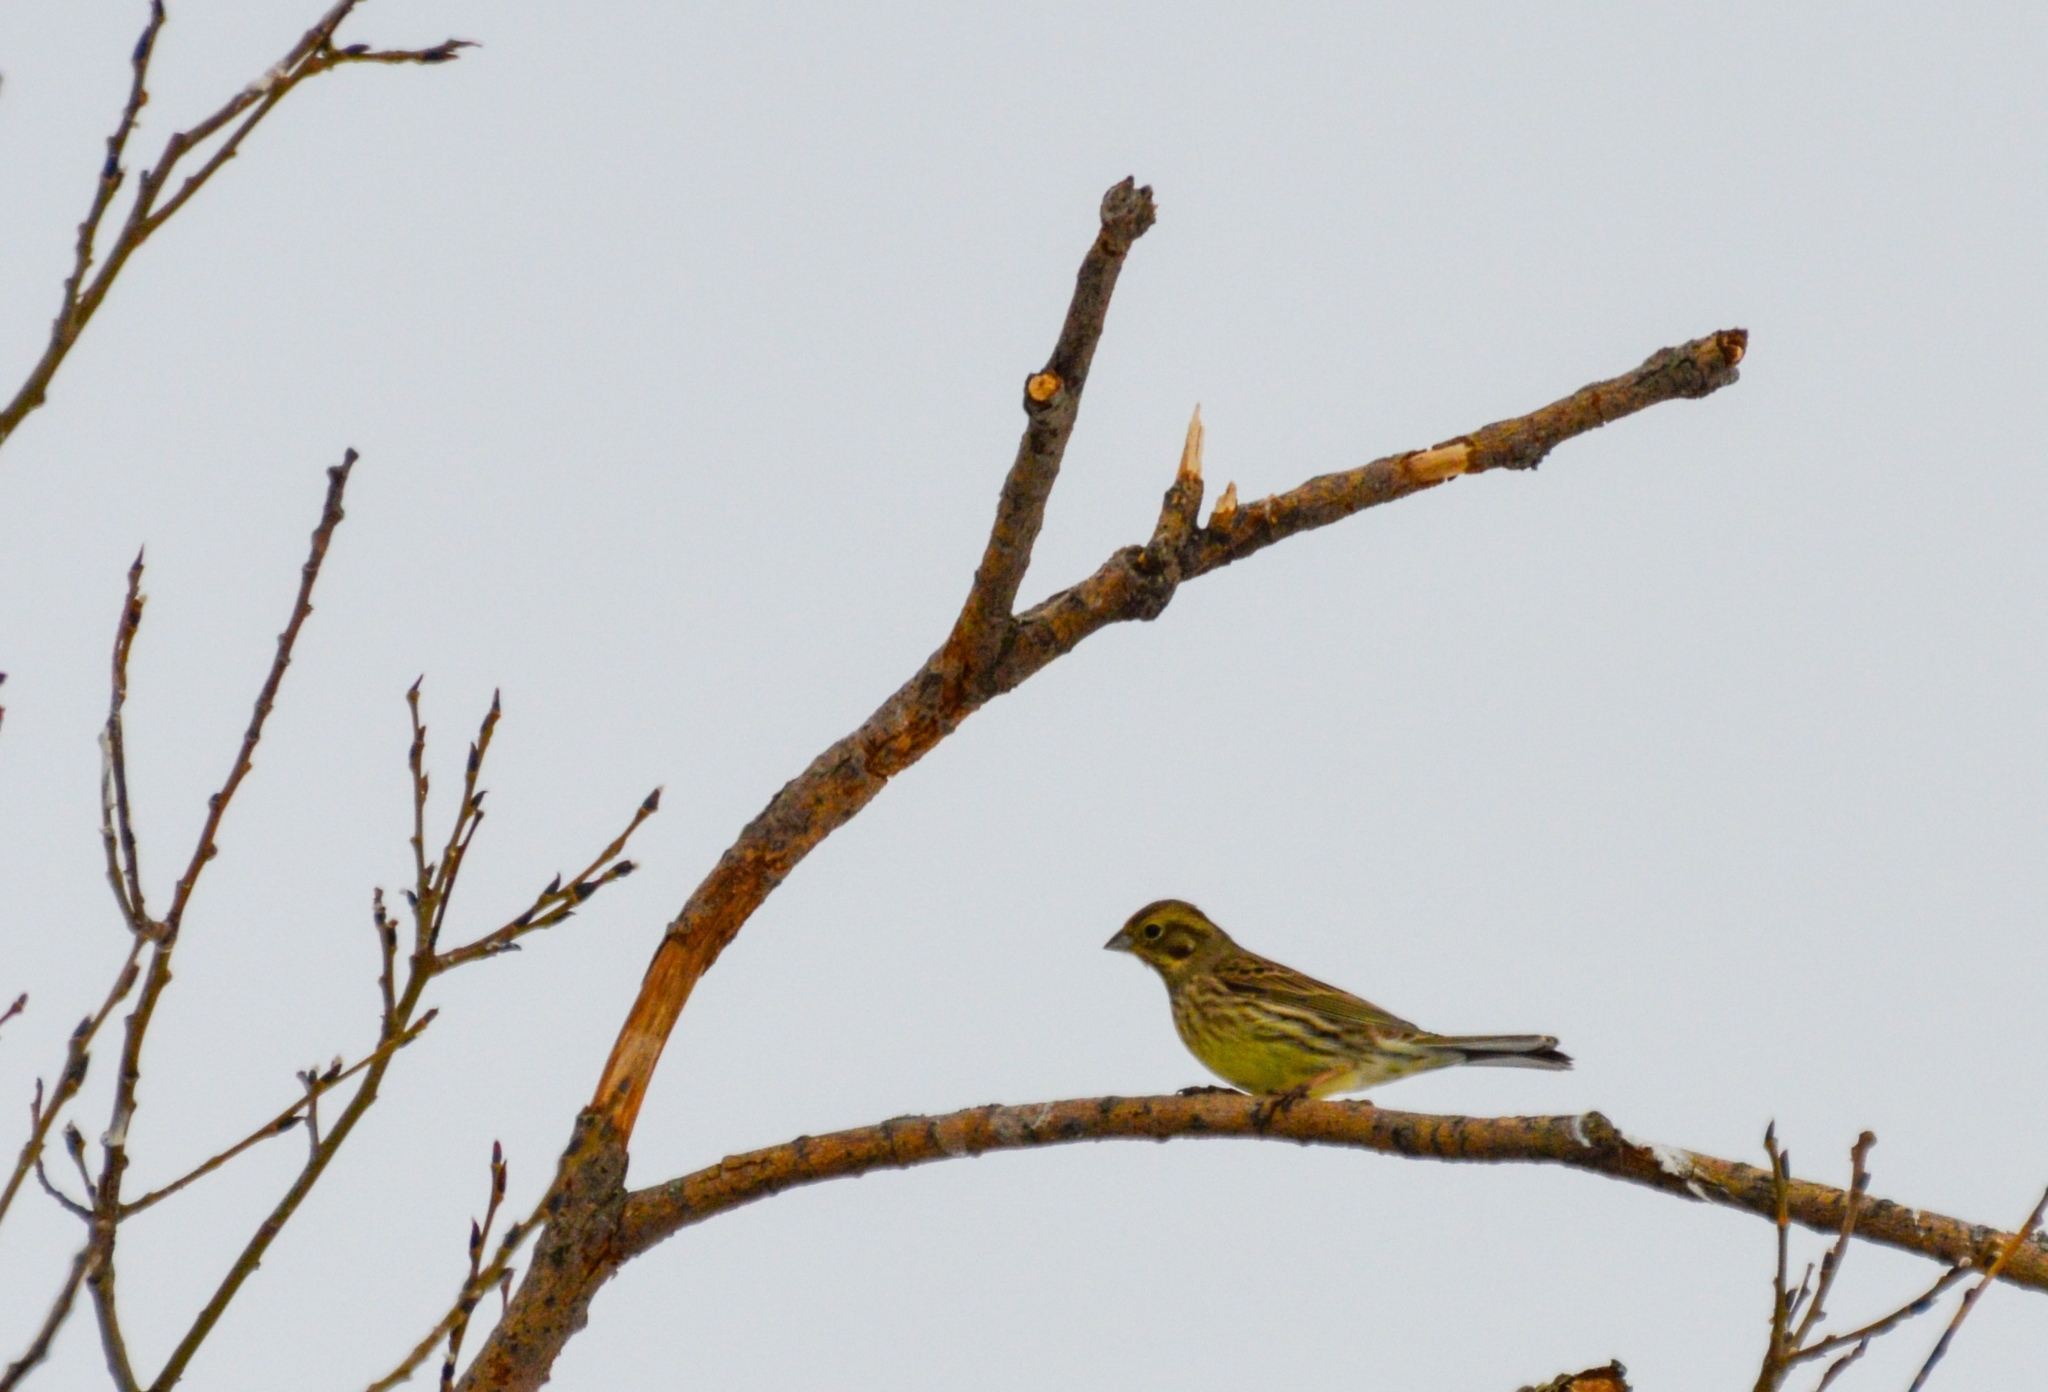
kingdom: Animalia
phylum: Chordata
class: Aves
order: Passeriformes
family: Emberizidae
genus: Emberiza
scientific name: Emberiza citrinella
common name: Yellowhammer
